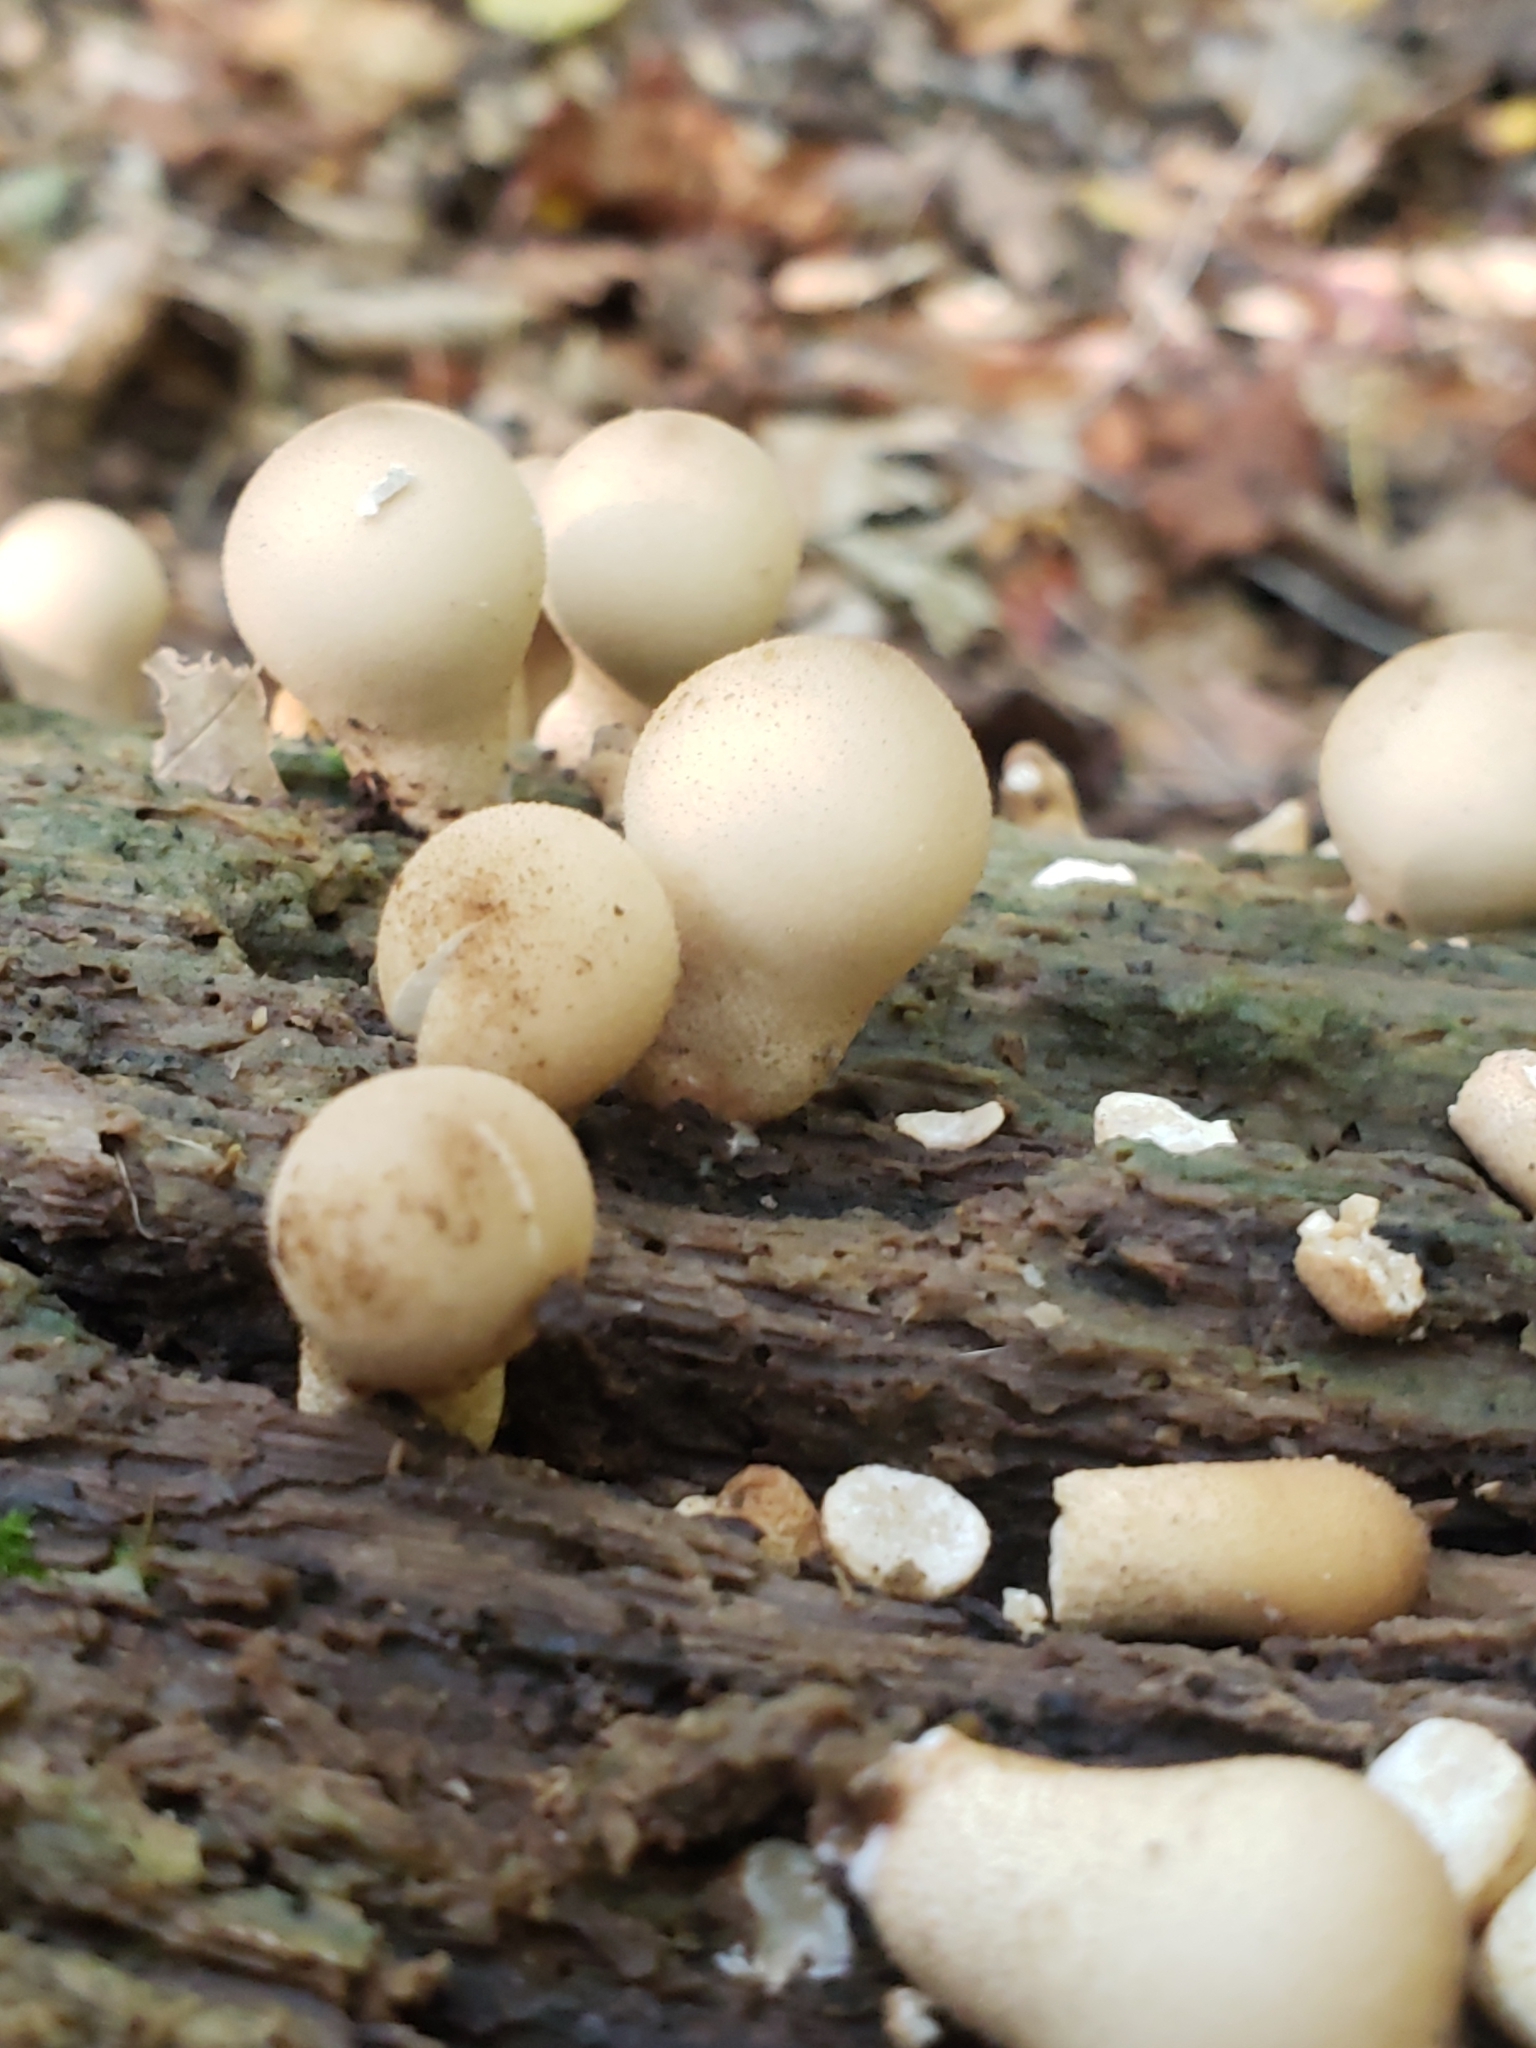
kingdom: Fungi
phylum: Basidiomycota
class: Agaricomycetes
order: Agaricales
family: Lycoperdaceae
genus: Apioperdon
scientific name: Apioperdon pyriforme
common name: Pear-shaped puffball
